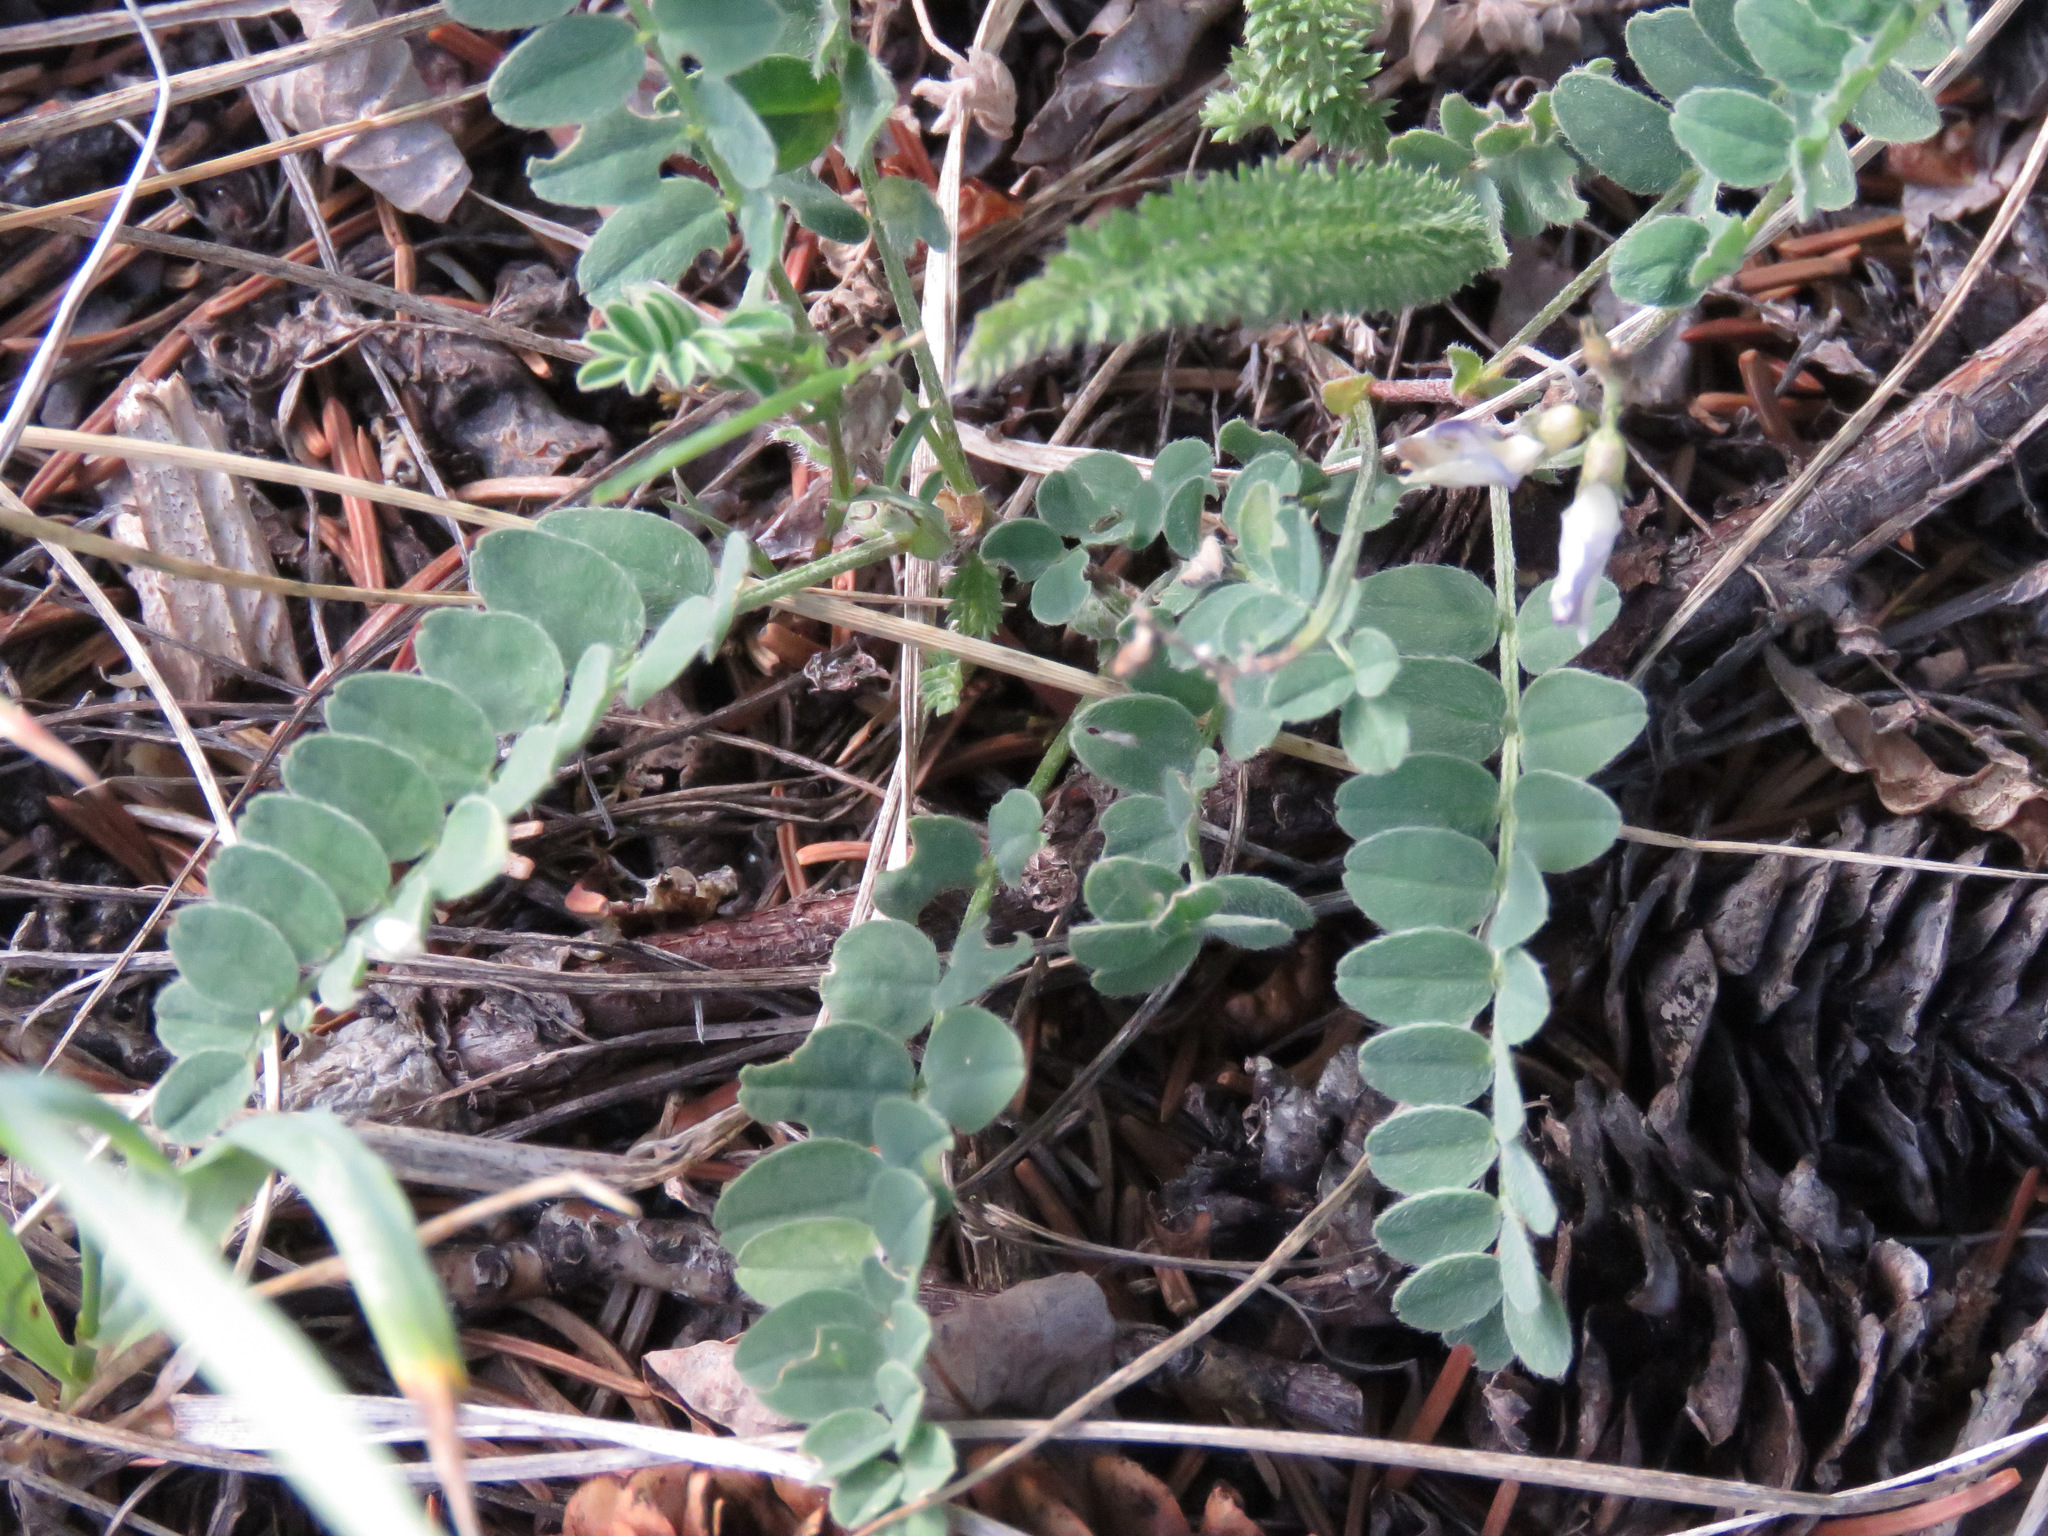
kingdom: Plantae
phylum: Tracheophyta
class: Magnoliopsida
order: Fabales
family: Fabaceae
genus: Astragalus
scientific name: Astragalus alpinus
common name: Alpine milk-vetch
